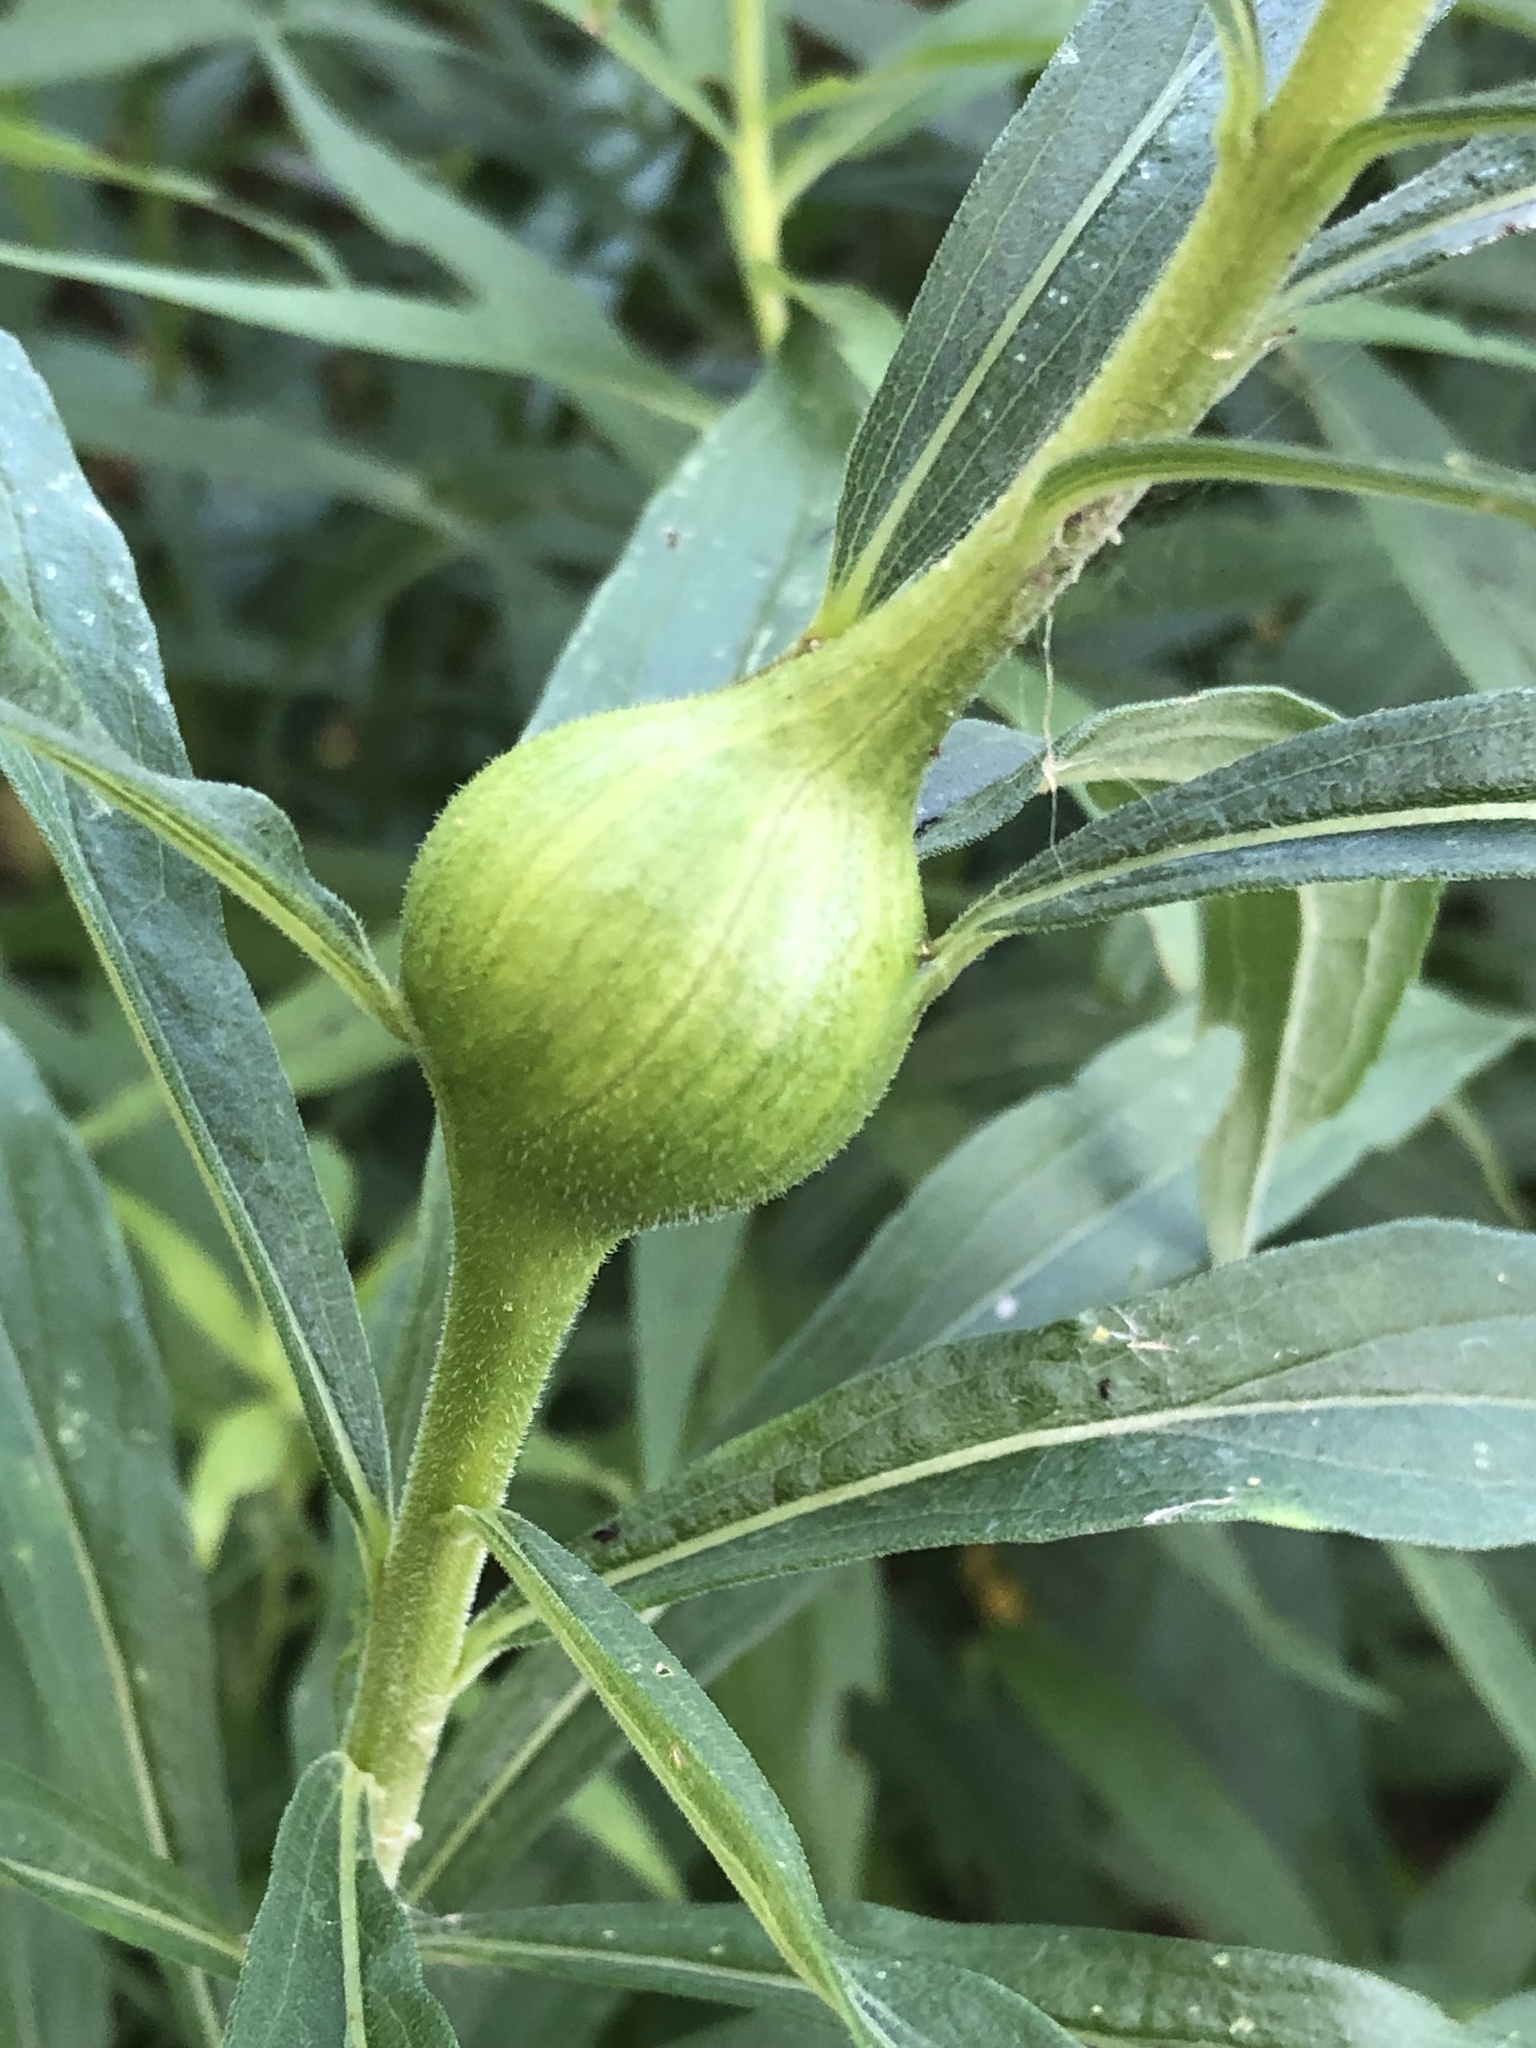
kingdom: Animalia
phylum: Arthropoda
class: Insecta
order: Diptera
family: Tephritidae
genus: Eurosta
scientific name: Eurosta solidaginis
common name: Goldenrod gall fly
